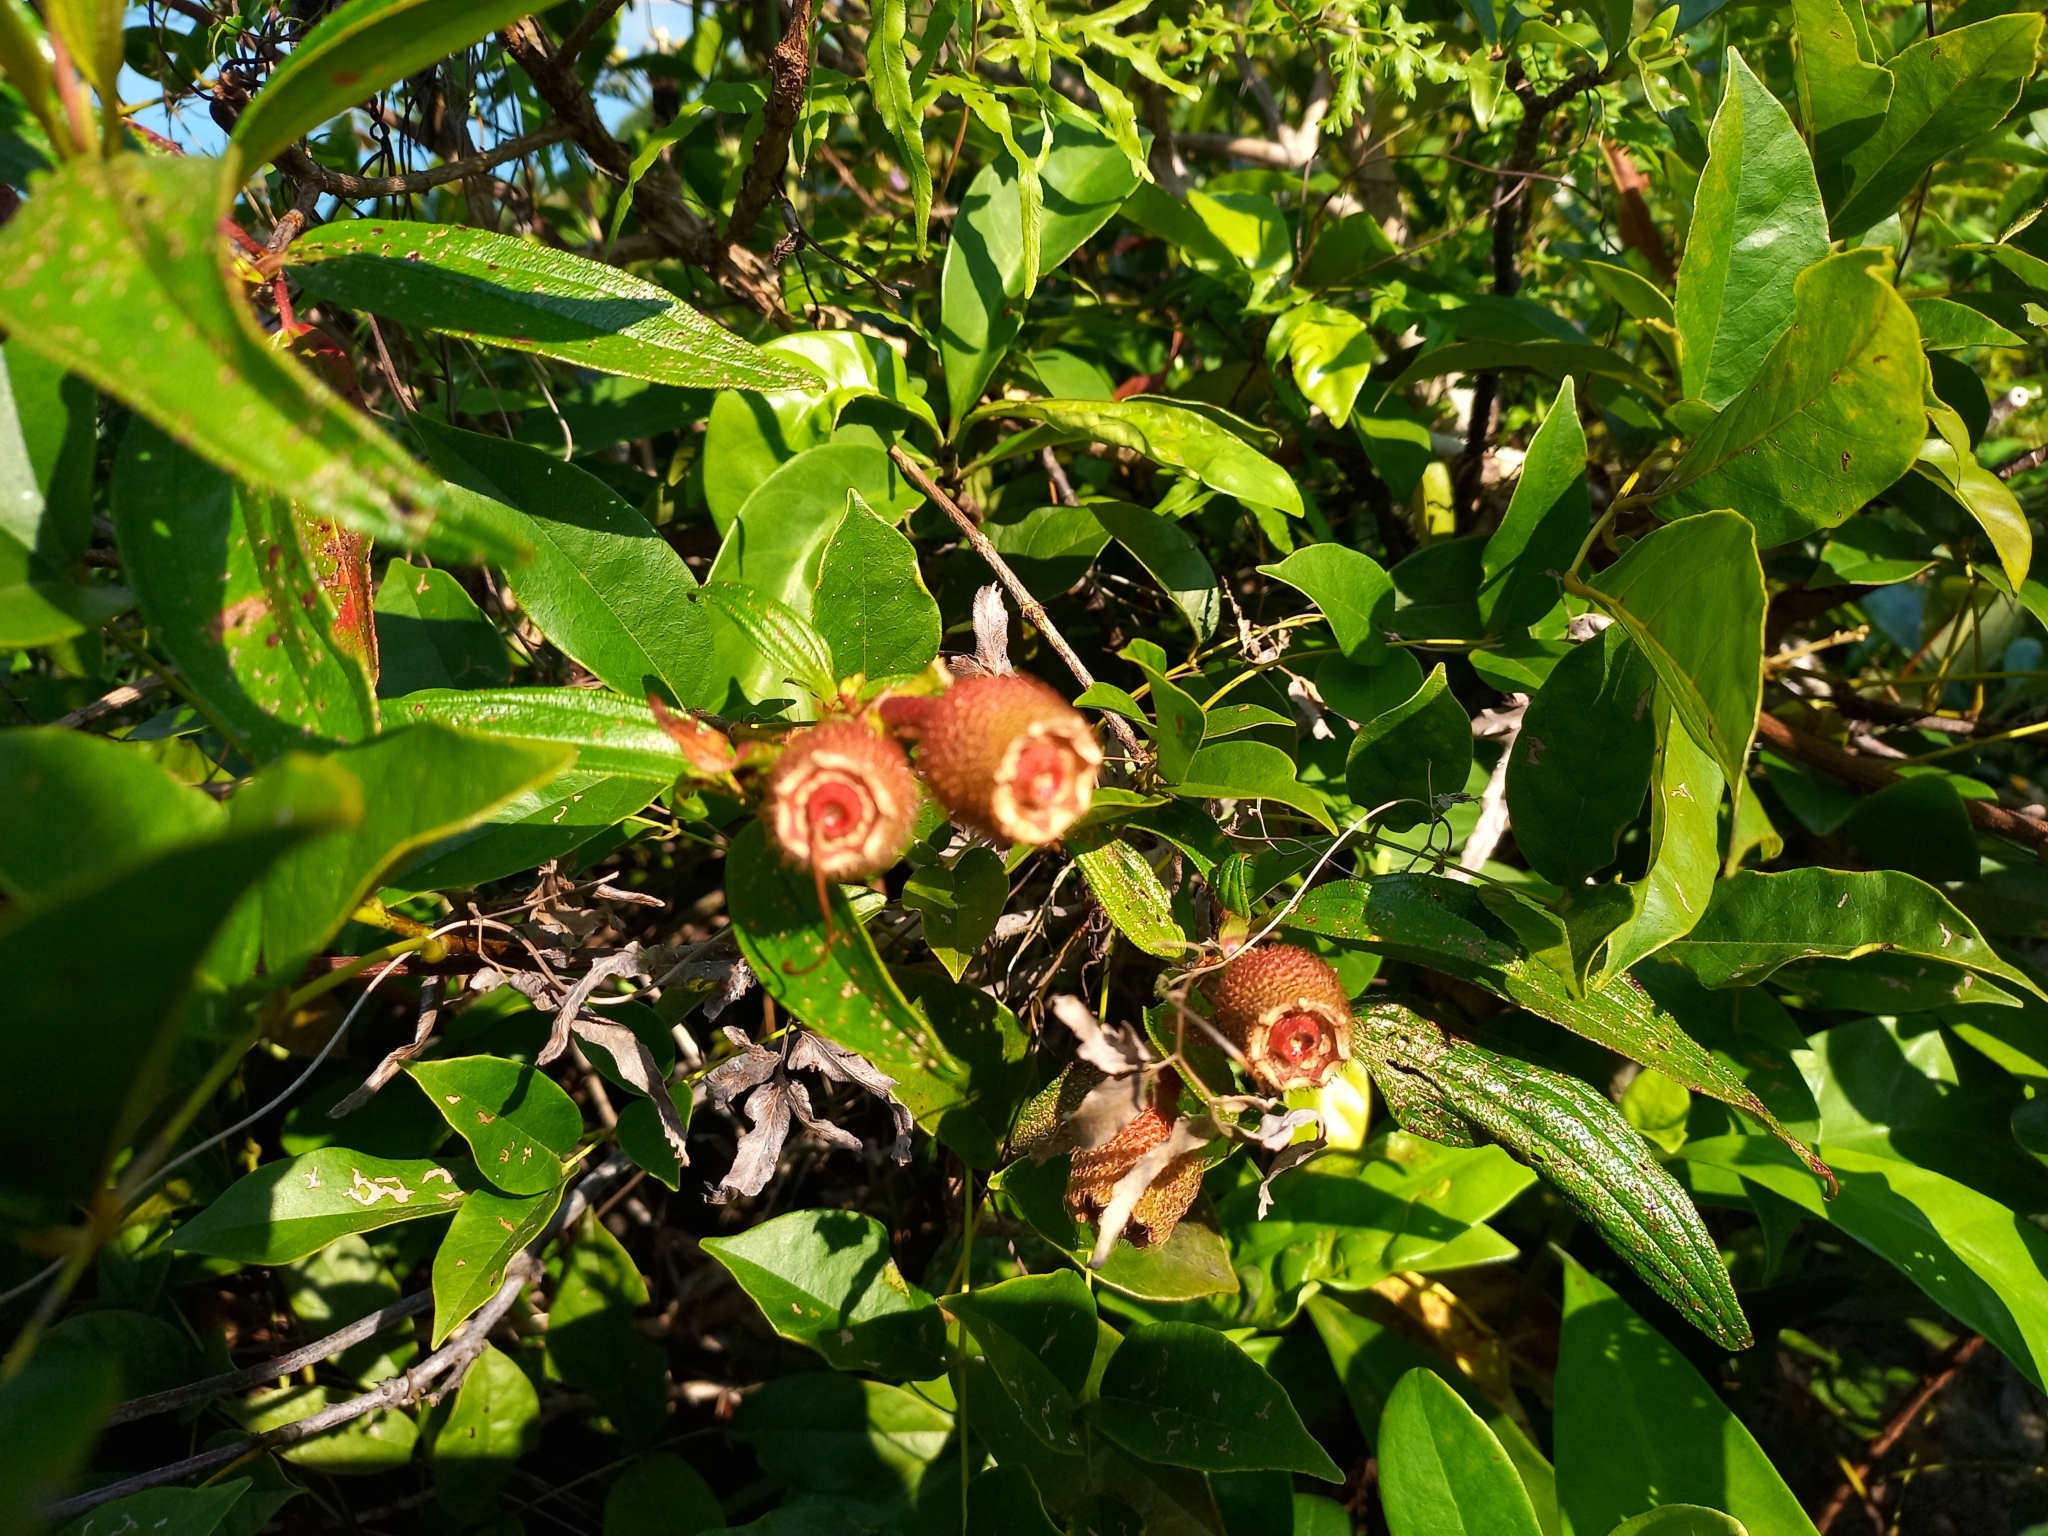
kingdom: Plantae
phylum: Tracheophyta
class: Magnoliopsida
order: Myrtales
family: Melastomataceae
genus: Melastoma
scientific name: Melastoma sanguineum
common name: Red melastome
